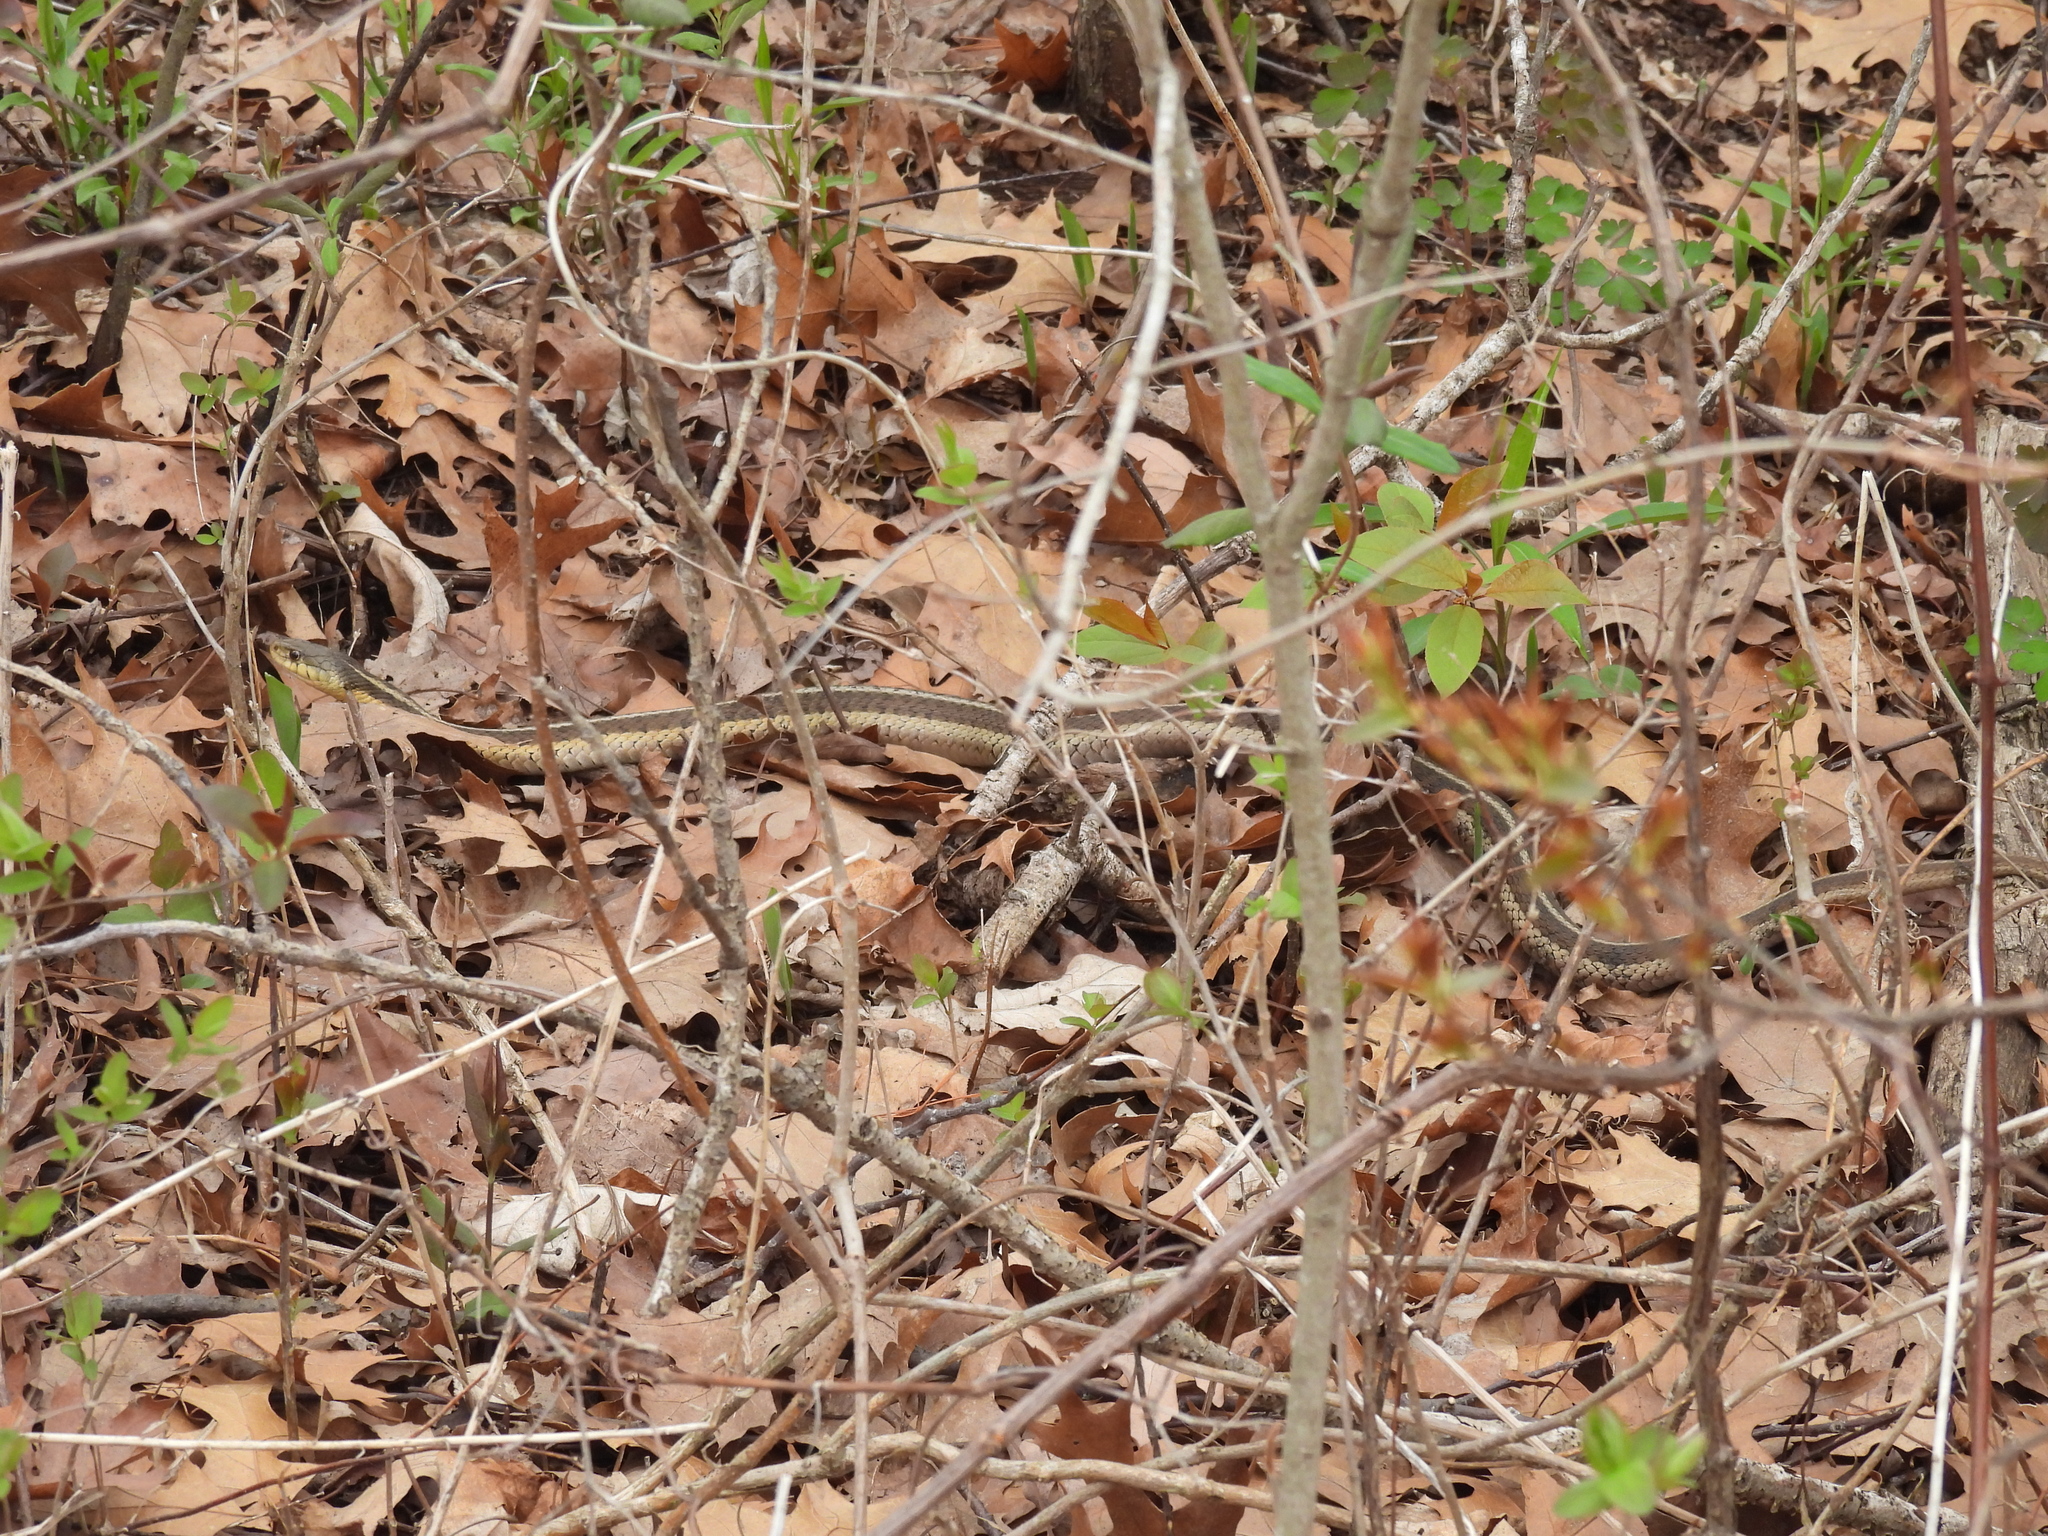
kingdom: Animalia
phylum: Chordata
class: Squamata
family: Colubridae
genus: Thamnophis
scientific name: Thamnophis sirtalis
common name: Common garter snake
